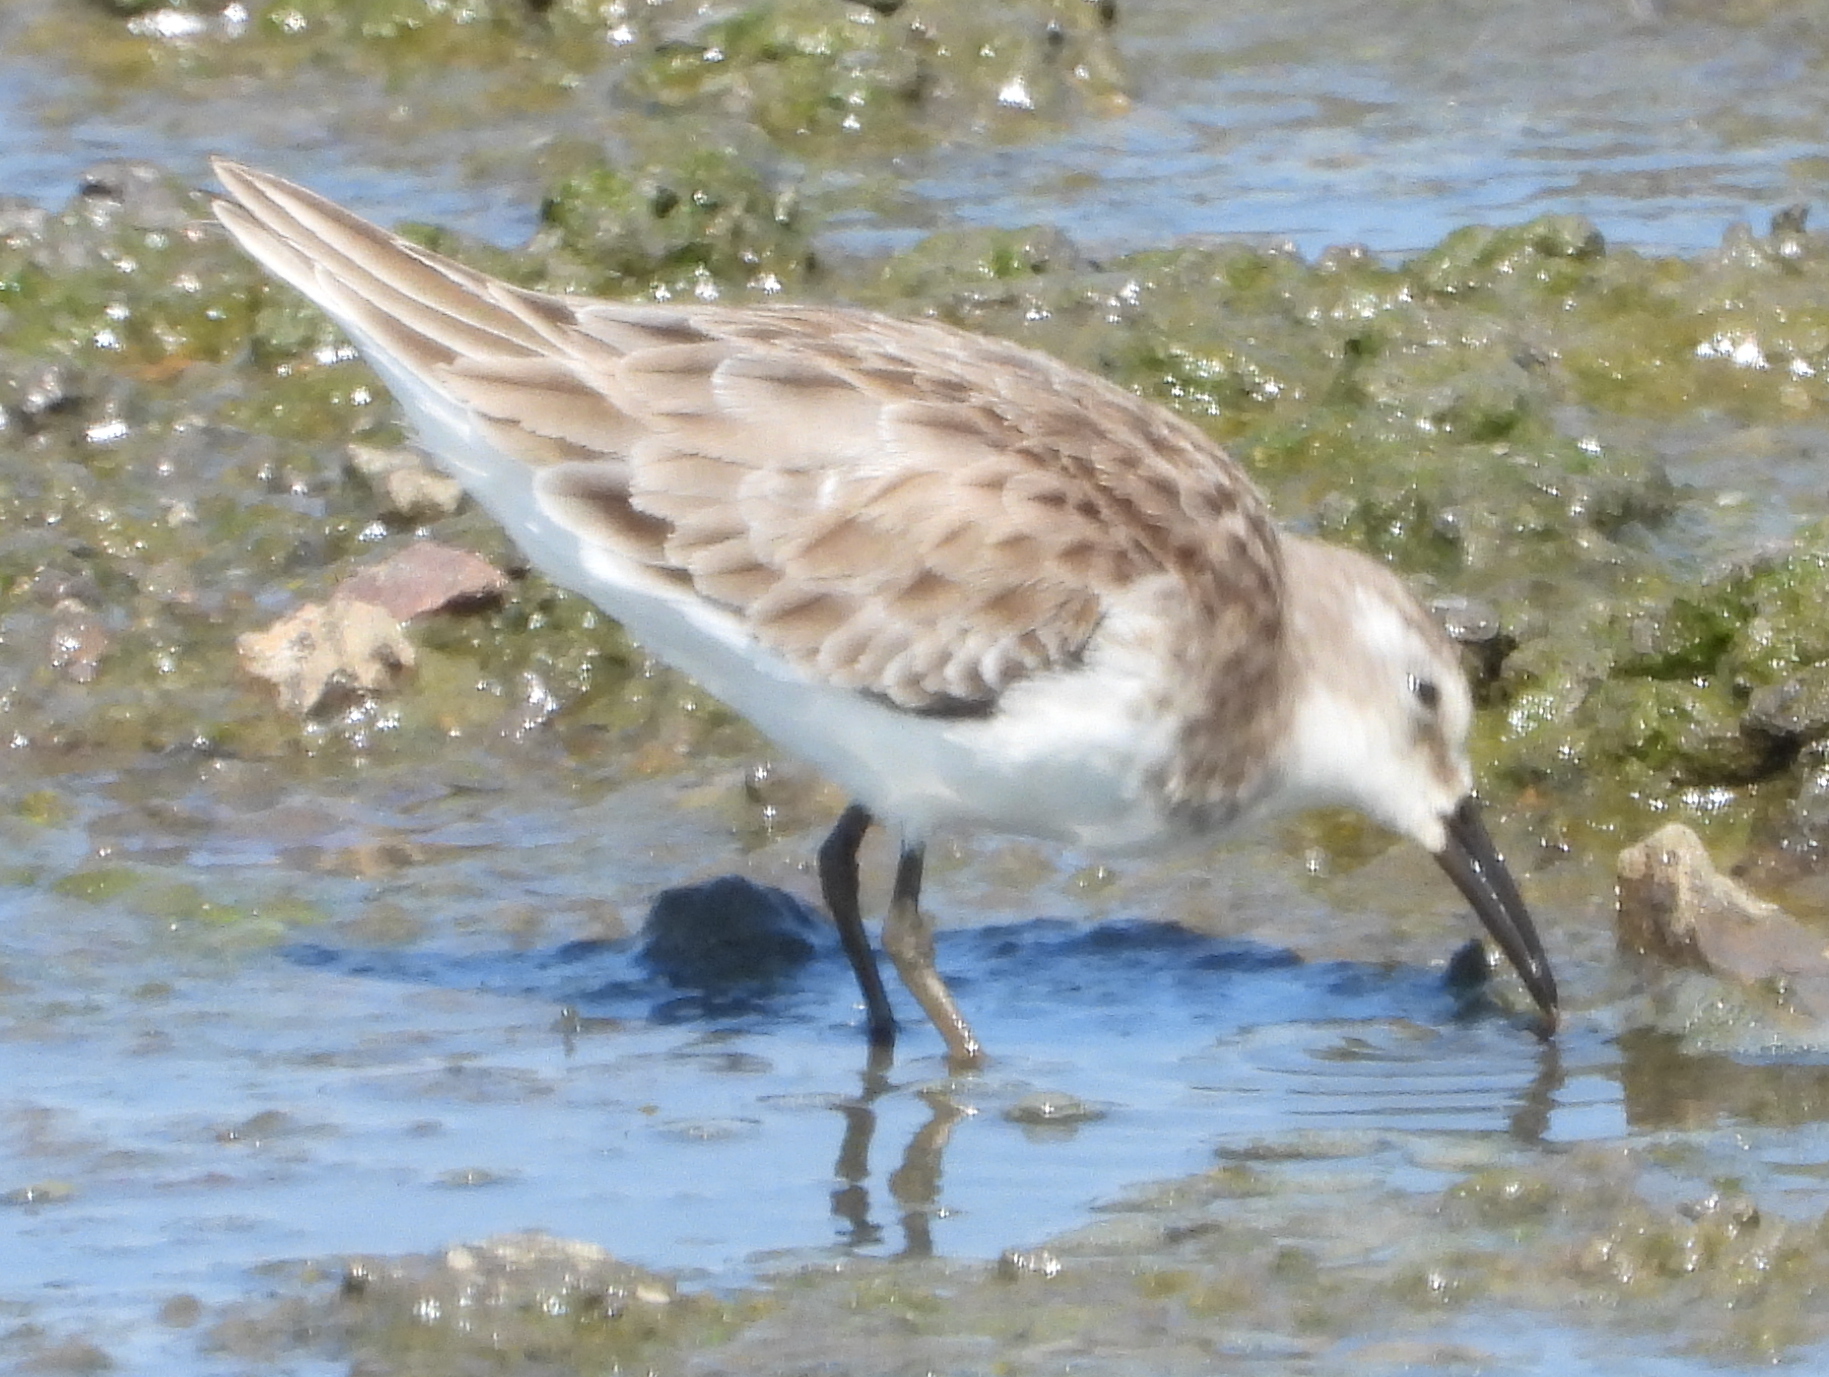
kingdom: Animalia
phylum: Chordata
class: Aves
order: Charadriiformes
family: Scolopacidae
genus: Calidris
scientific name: Calidris minuta
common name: Little stint
